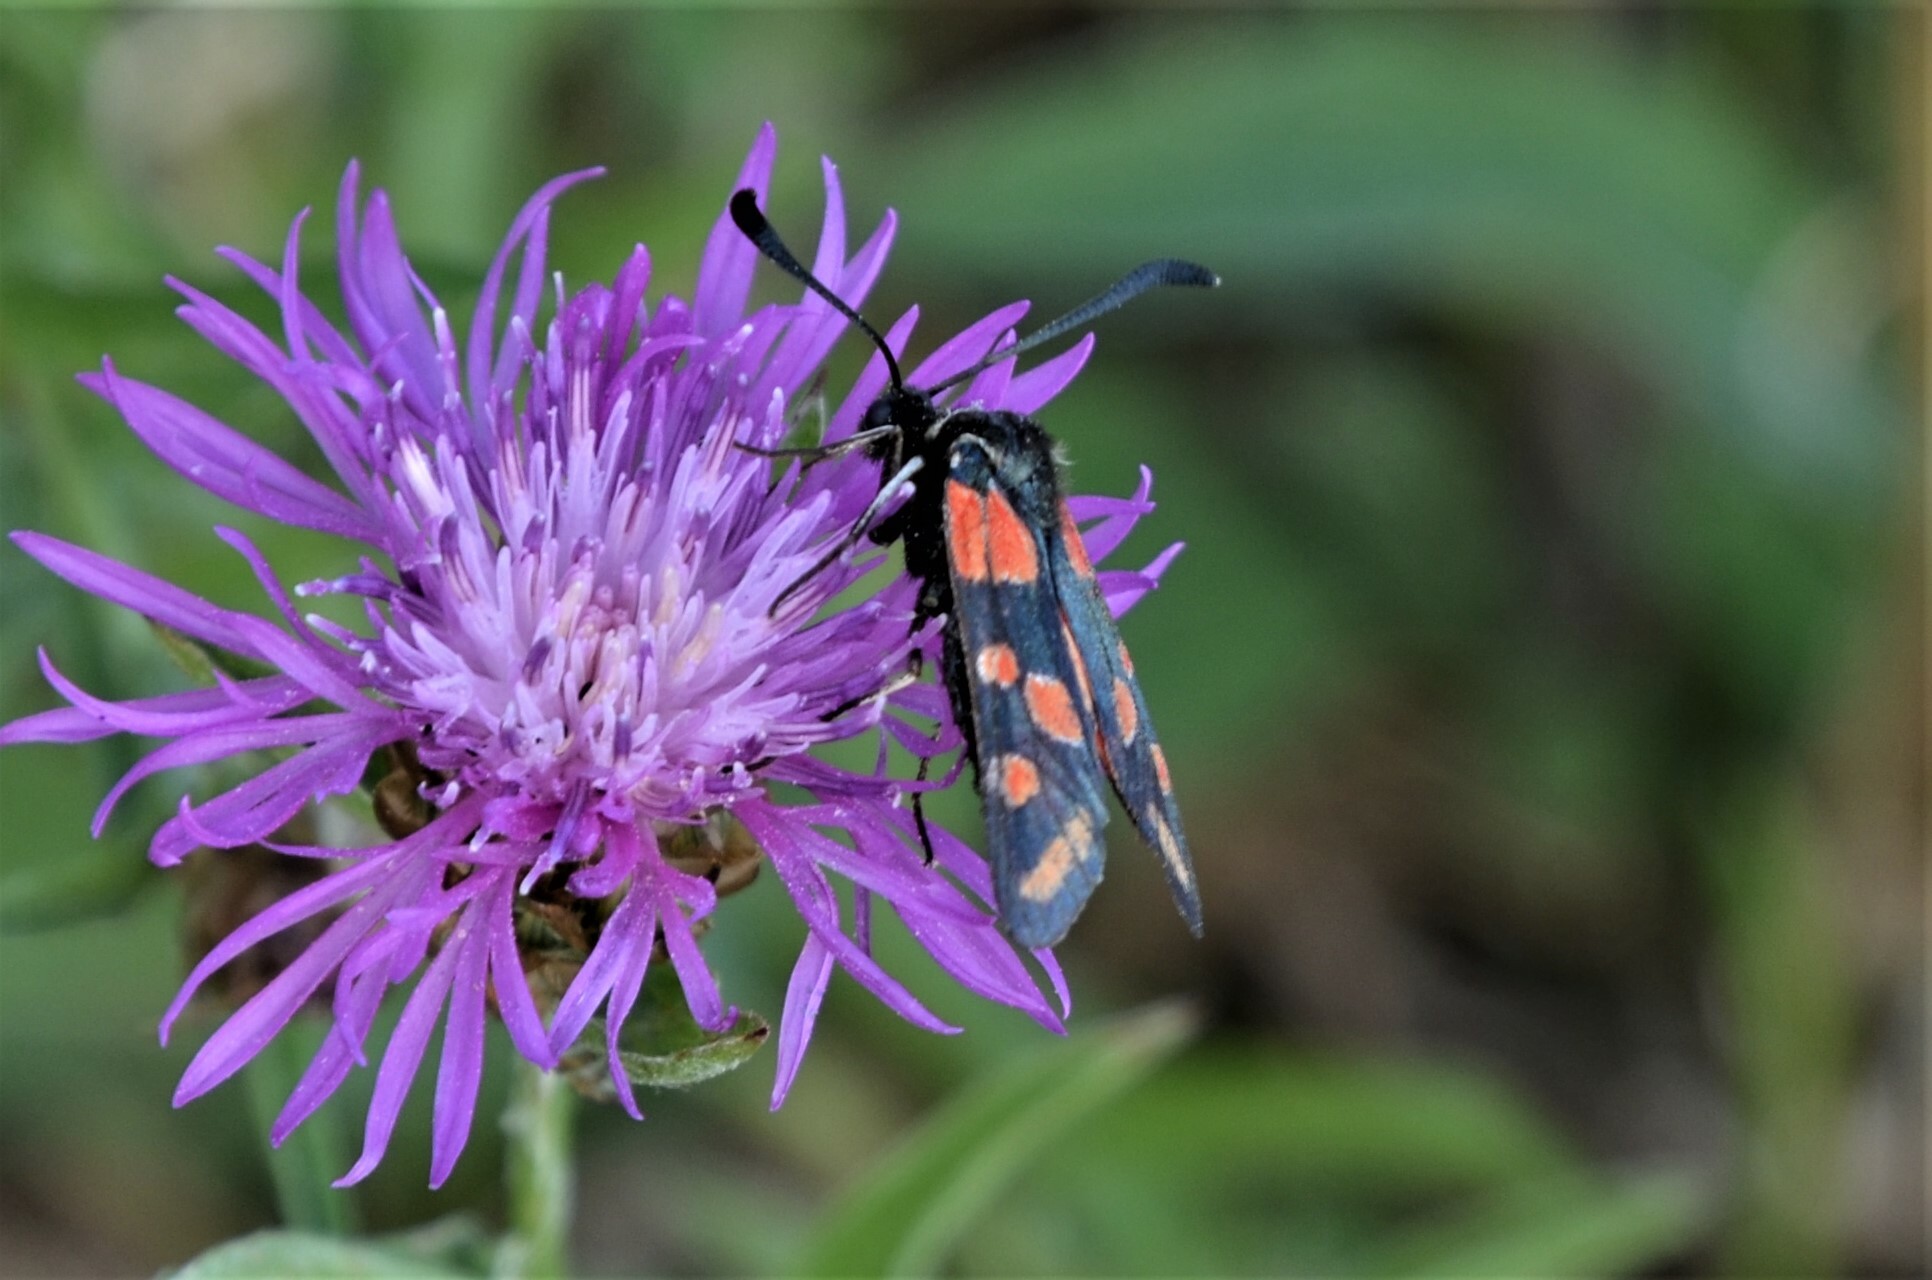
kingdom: Animalia
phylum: Arthropoda
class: Insecta
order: Lepidoptera
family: Zygaenidae
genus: Zygaena
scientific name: Zygaena carniolica
